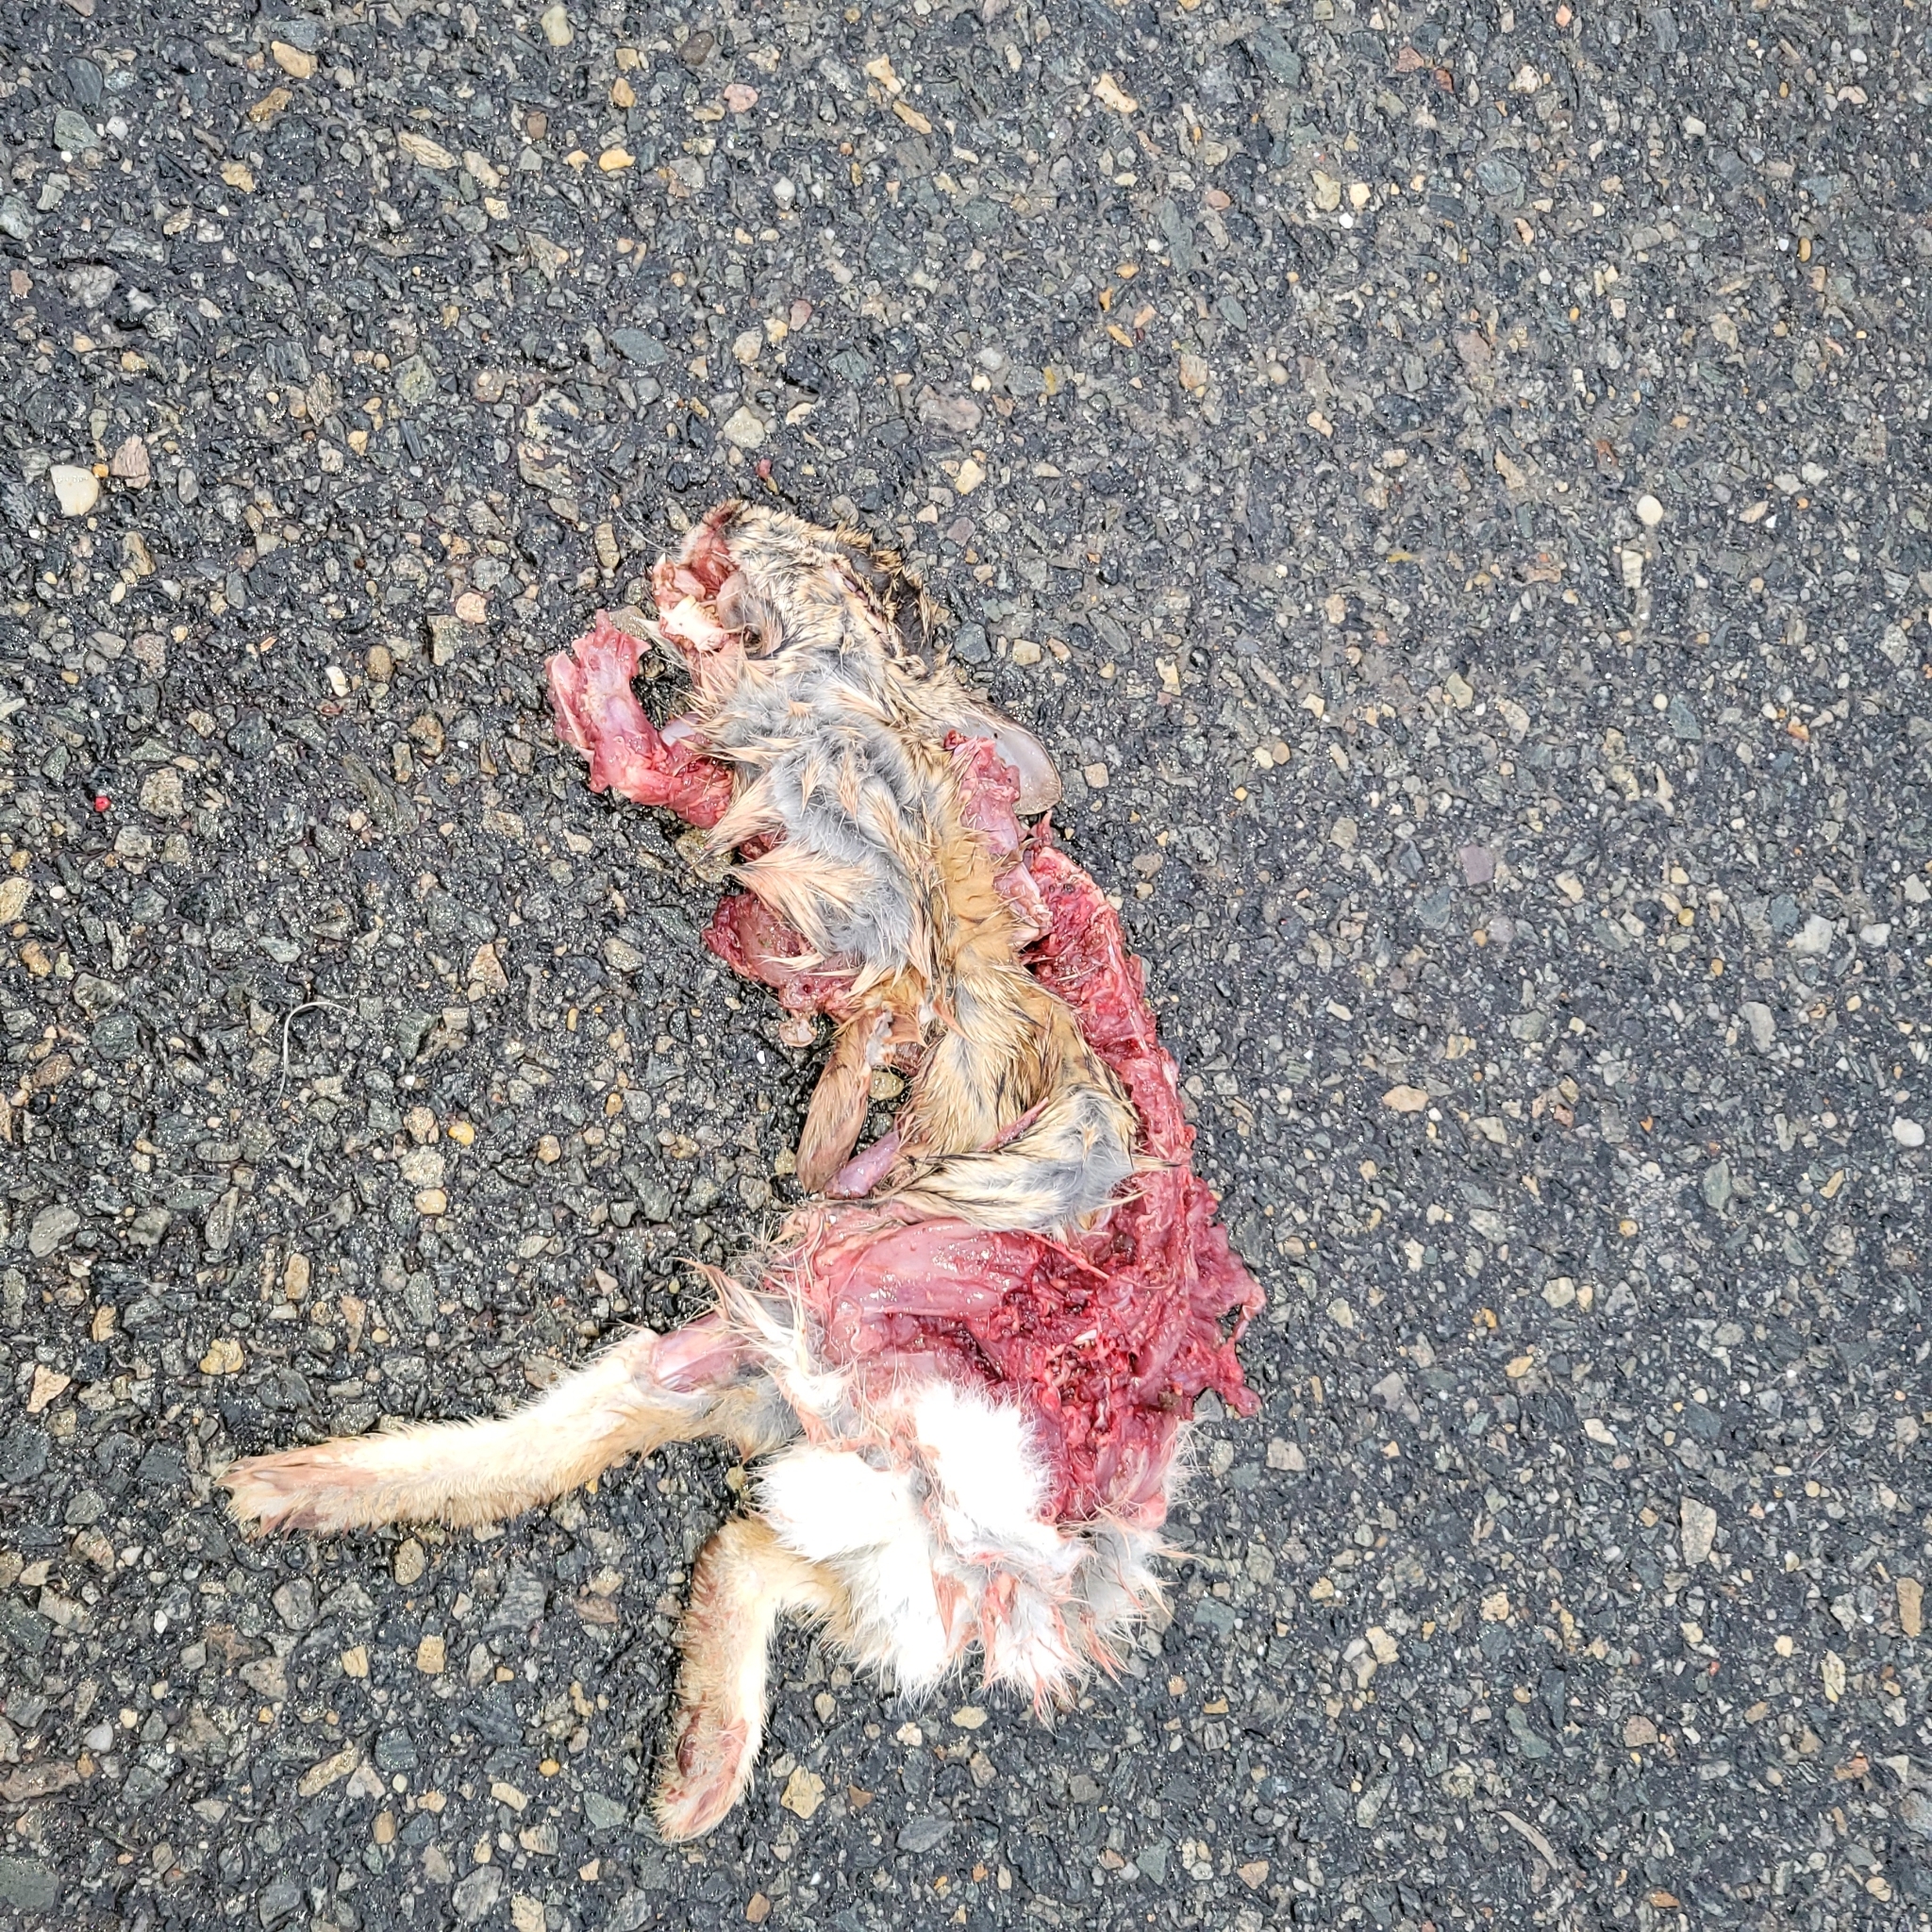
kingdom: Animalia
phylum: Chordata
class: Mammalia
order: Lagomorpha
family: Leporidae
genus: Sylvilagus
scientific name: Sylvilagus floridanus
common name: Eastern cottontail
